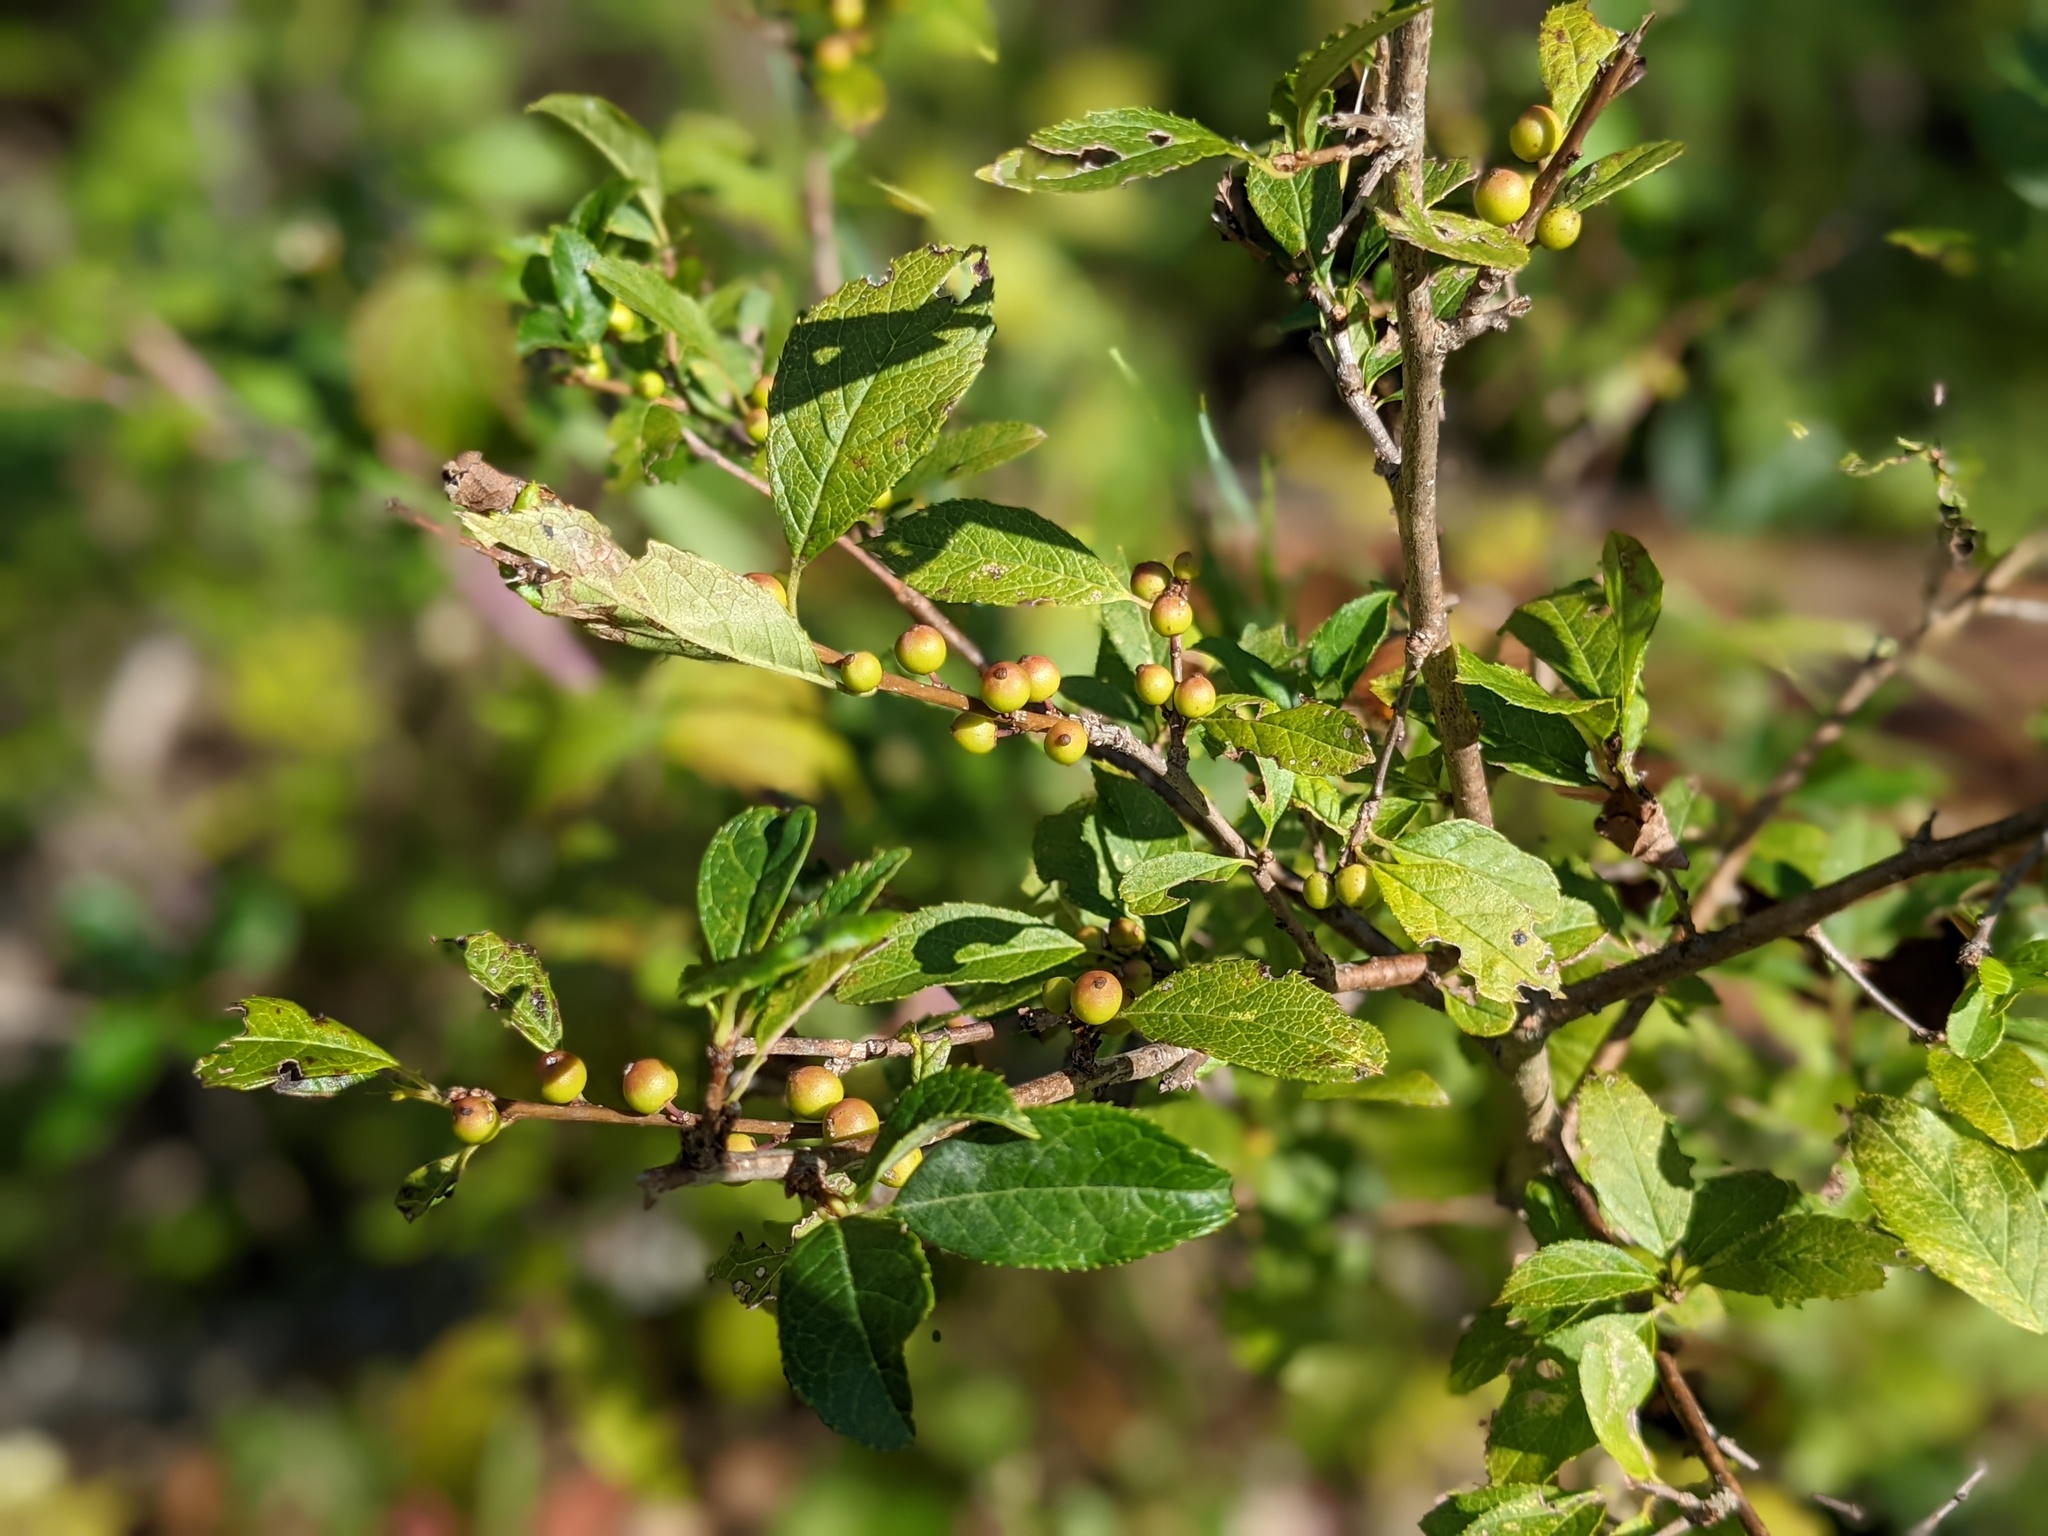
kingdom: Plantae
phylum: Tracheophyta
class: Magnoliopsida
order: Aquifoliales
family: Aquifoliaceae
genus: Ilex
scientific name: Ilex verticillata
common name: Virginia winterberry
